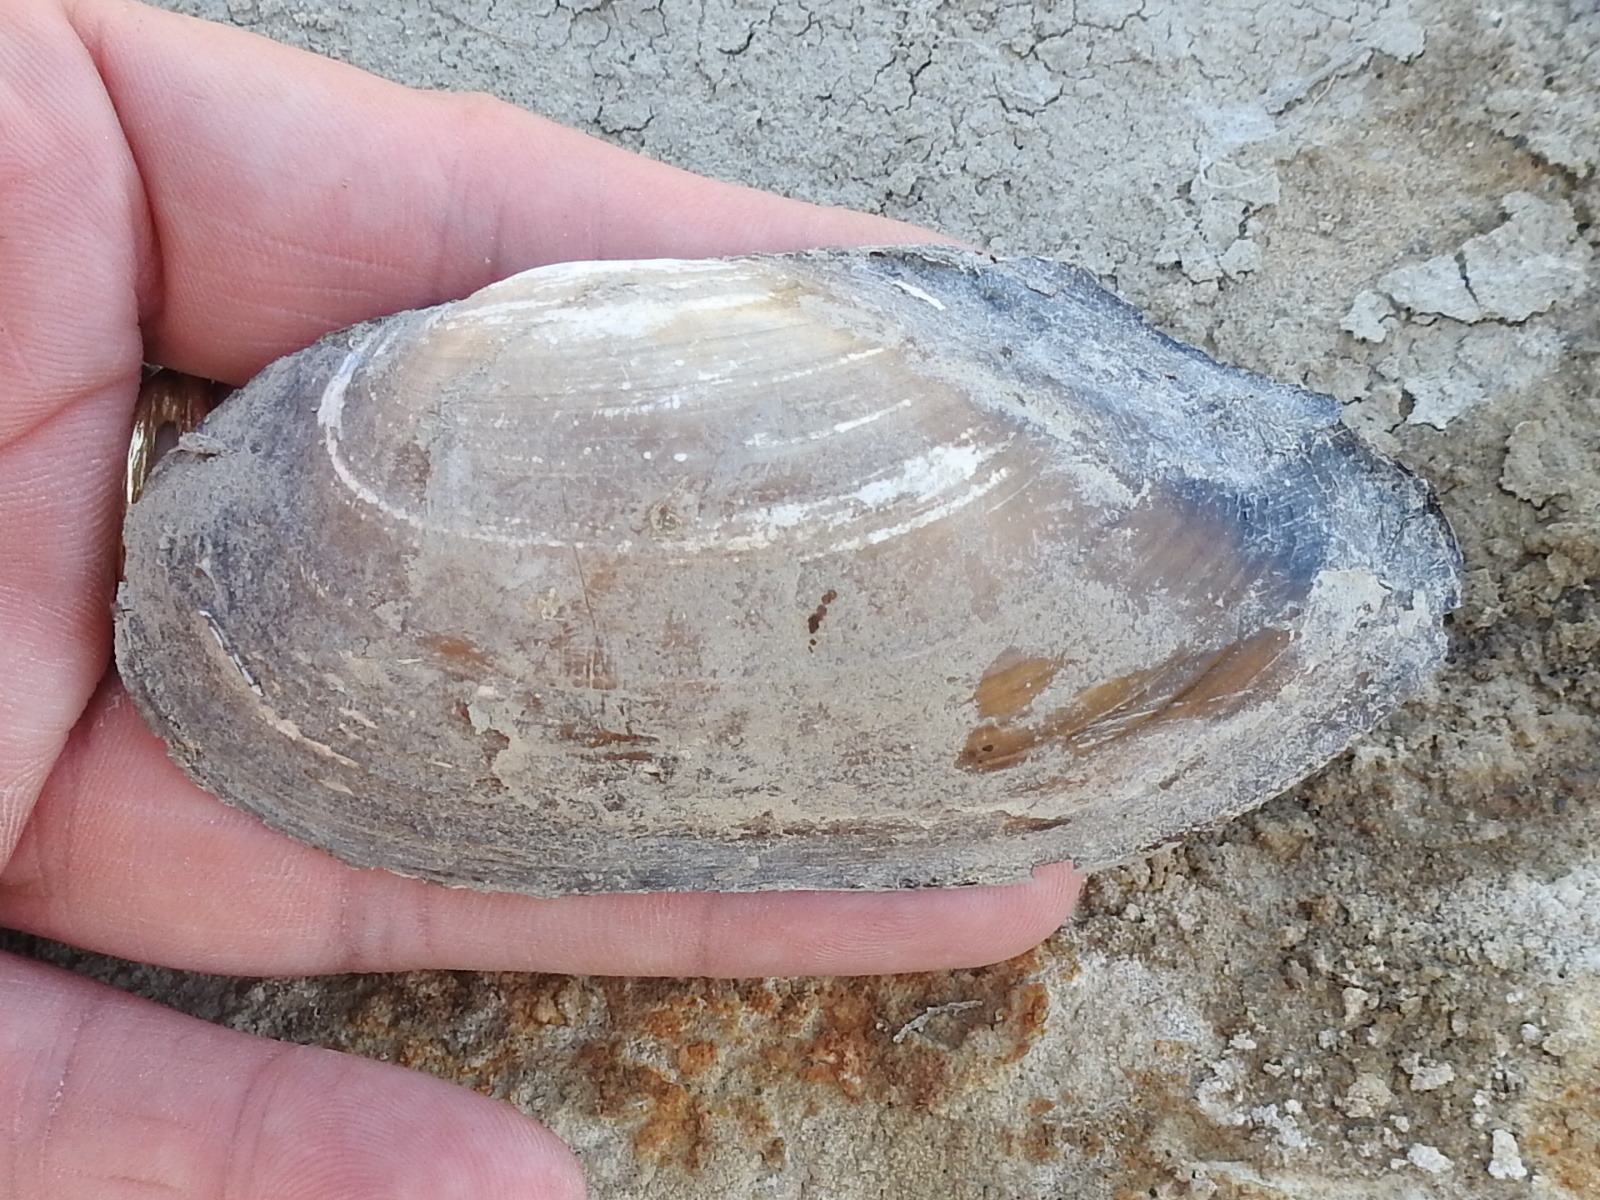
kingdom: Animalia
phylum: Mollusca
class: Bivalvia
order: Unionida
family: Unionidae
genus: Utterbackia
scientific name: Utterbackia imbecillis
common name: Paper pondshell
